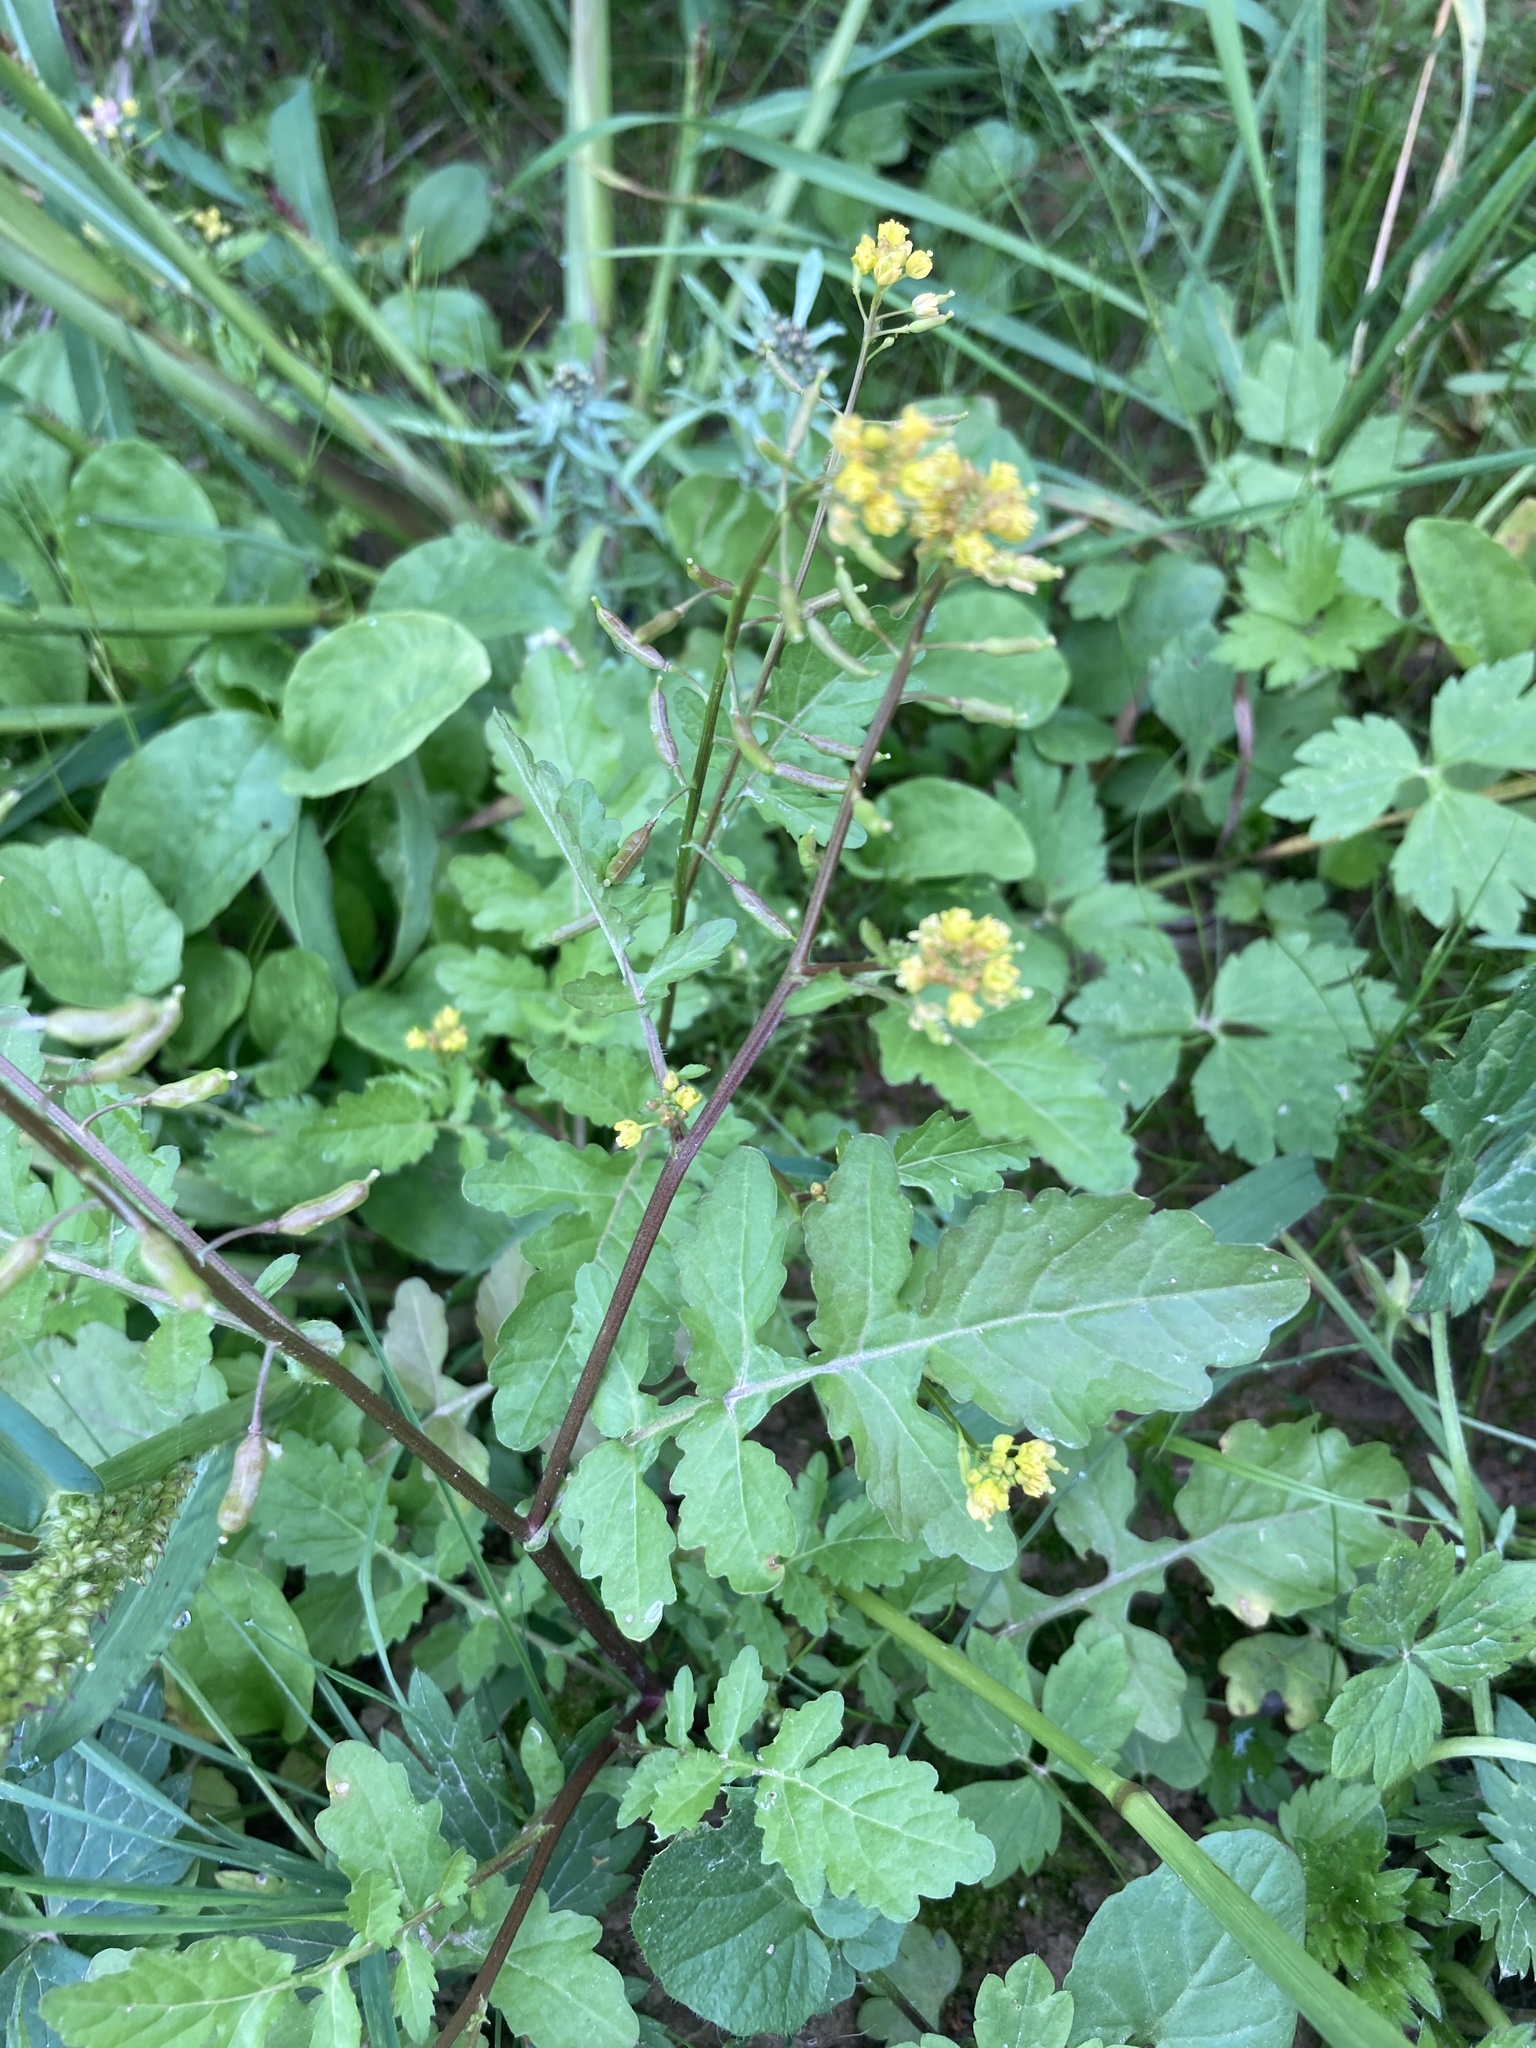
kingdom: Plantae
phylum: Tracheophyta
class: Magnoliopsida
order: Brassicales
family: Brassicaceae
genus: Rorippa
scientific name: Rorippa palustris
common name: Marsh yellow-cress
